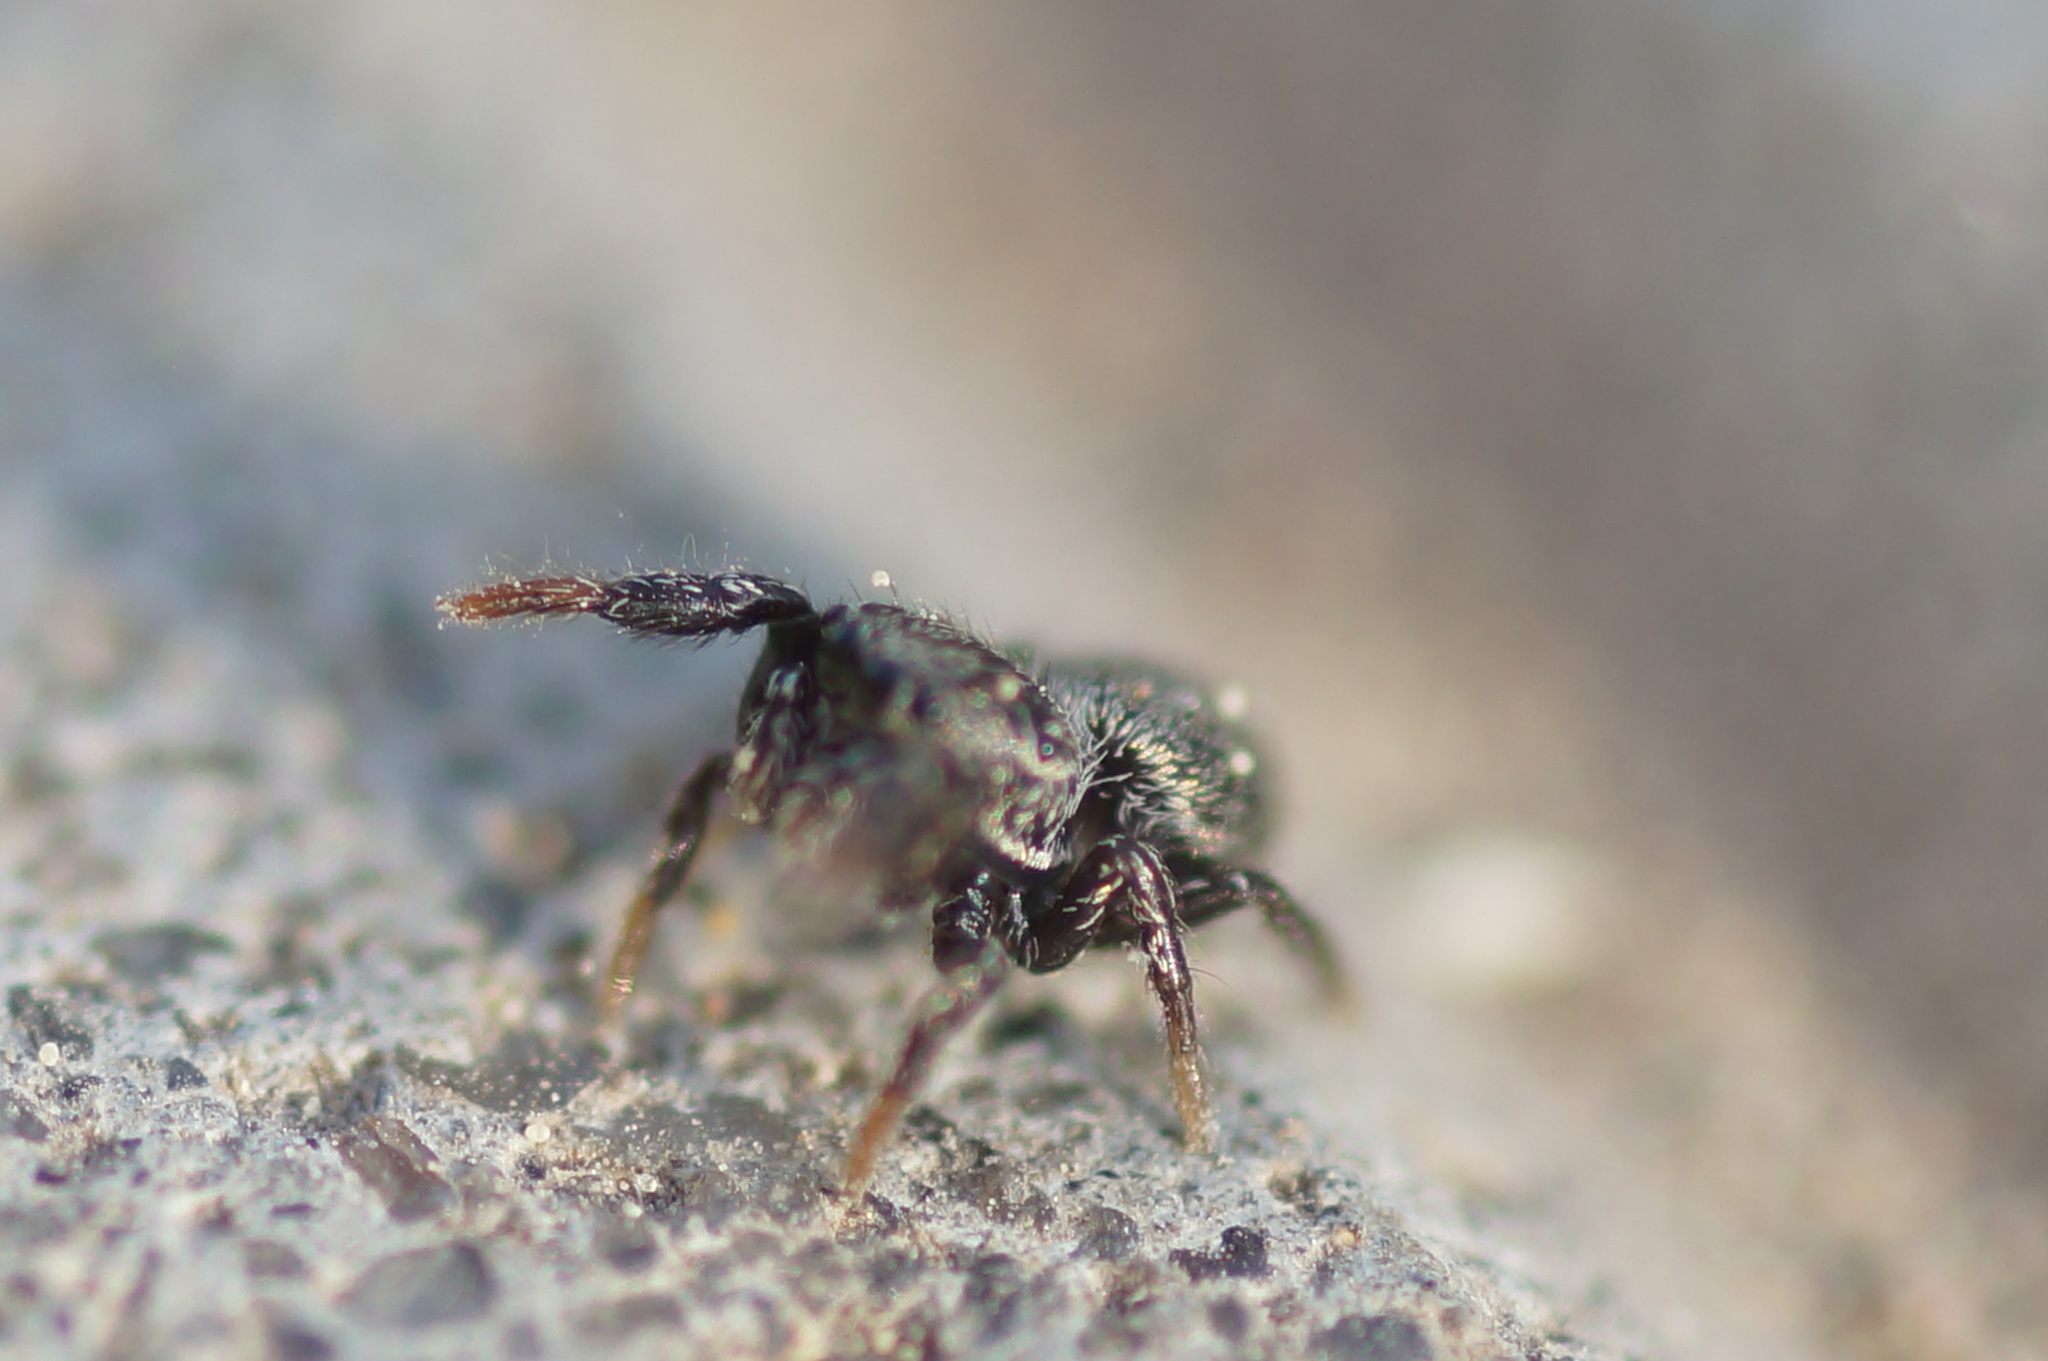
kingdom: Animalia
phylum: Arthropoda
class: Arachnida
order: Araneae
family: Salticidae
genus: Sibianor
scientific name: Sibianor aurocinctus
